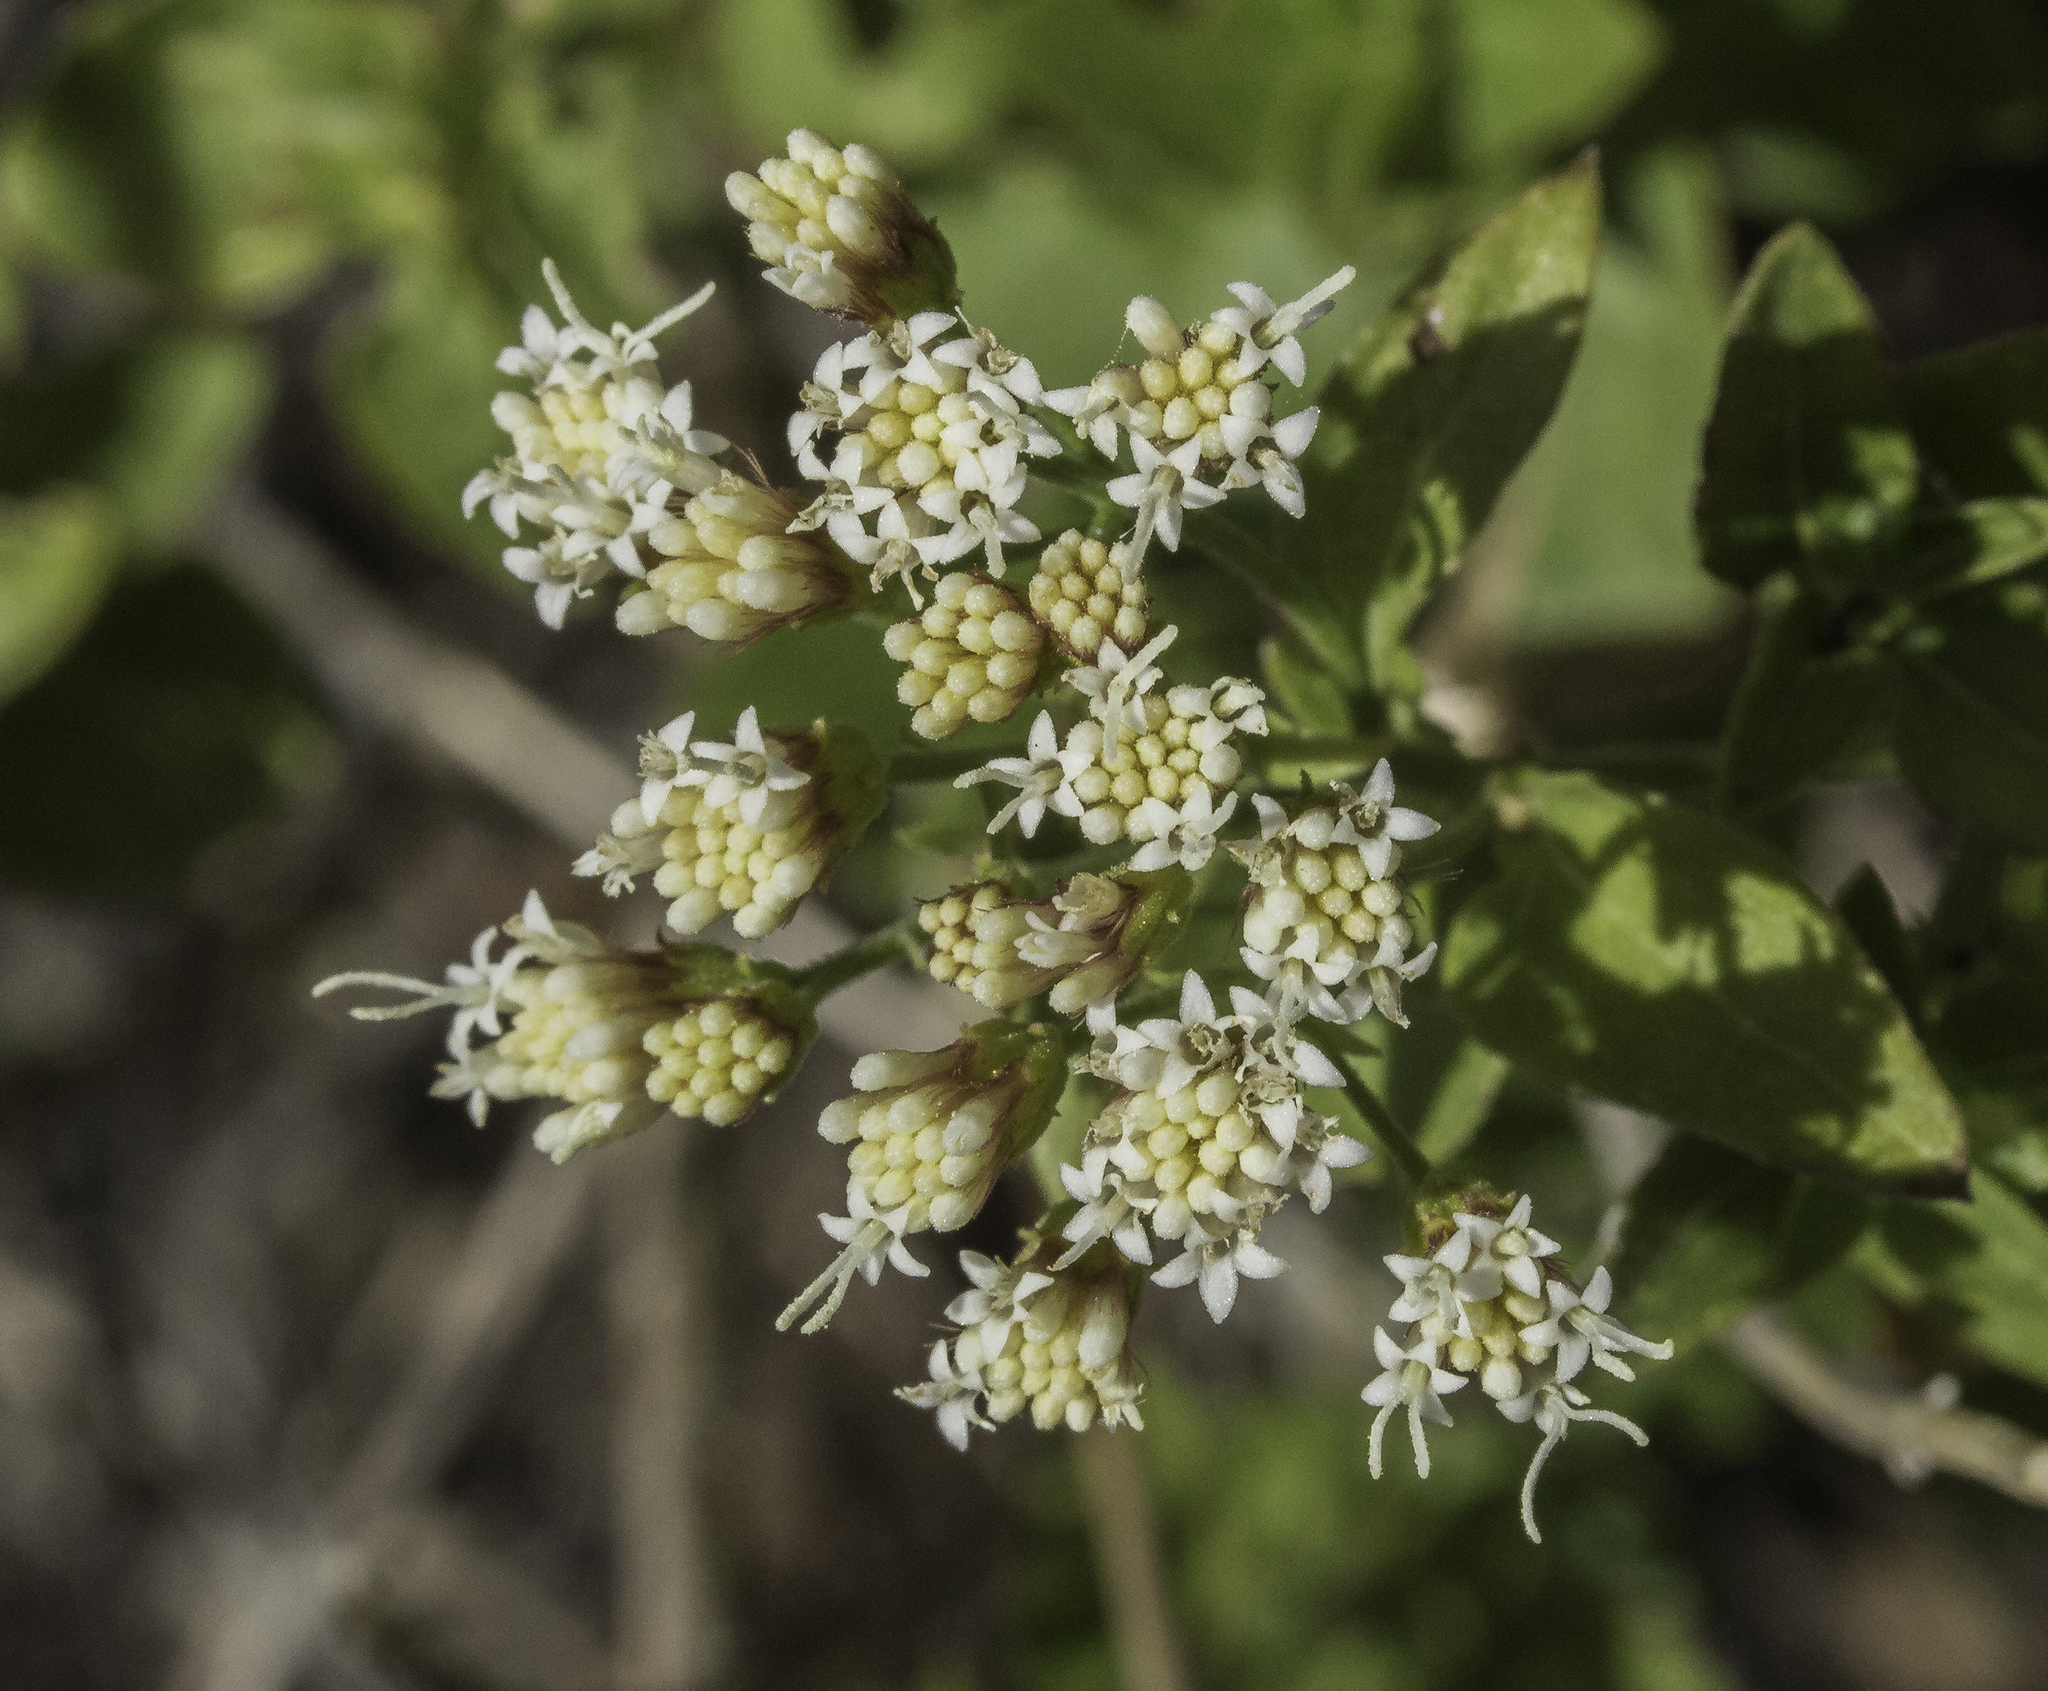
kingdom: Plantae
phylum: Tracheophyta
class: Magnoliopsida
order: Asterales
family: Asteraceae
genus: Ageratina
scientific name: Ageratina herbacea
